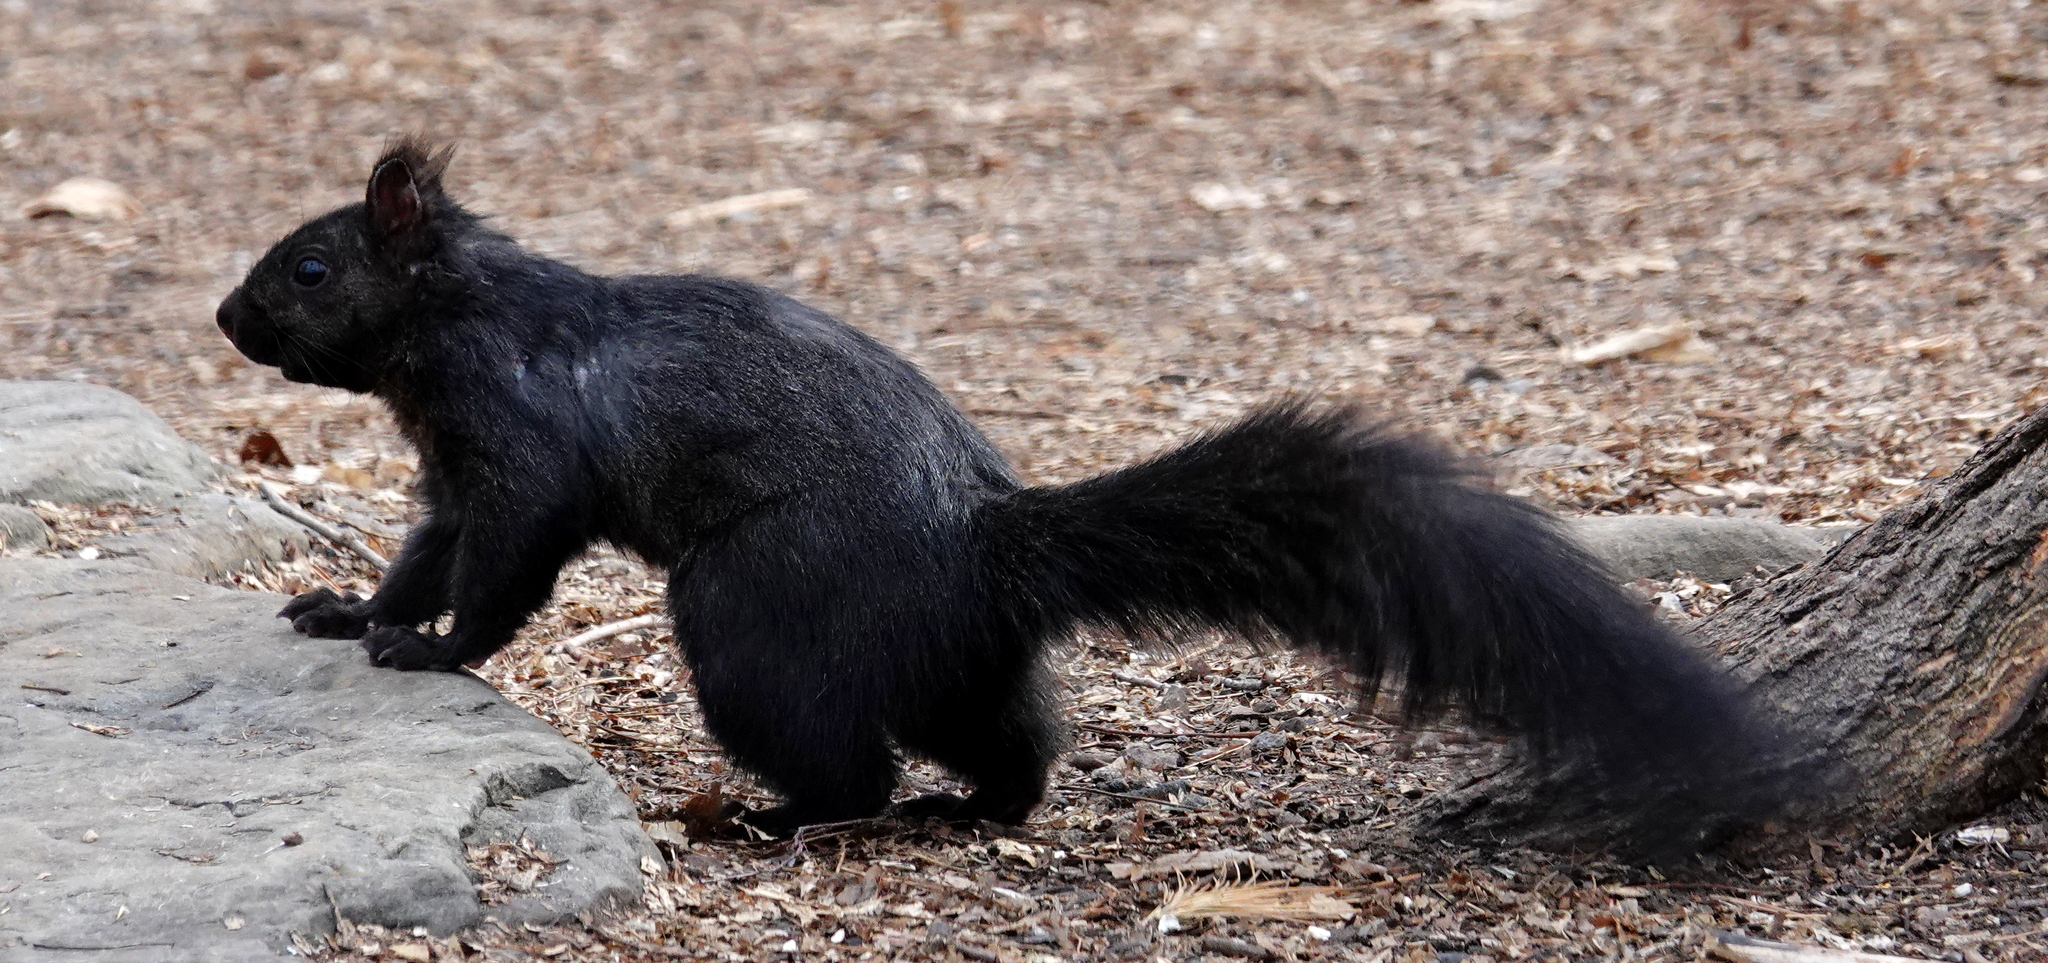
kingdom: Animalia
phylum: Chordata
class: Mammalia
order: Rodentia
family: Sciuridae
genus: Sciurus
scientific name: Sciurus carolinensis
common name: Eastern gray squirrel
